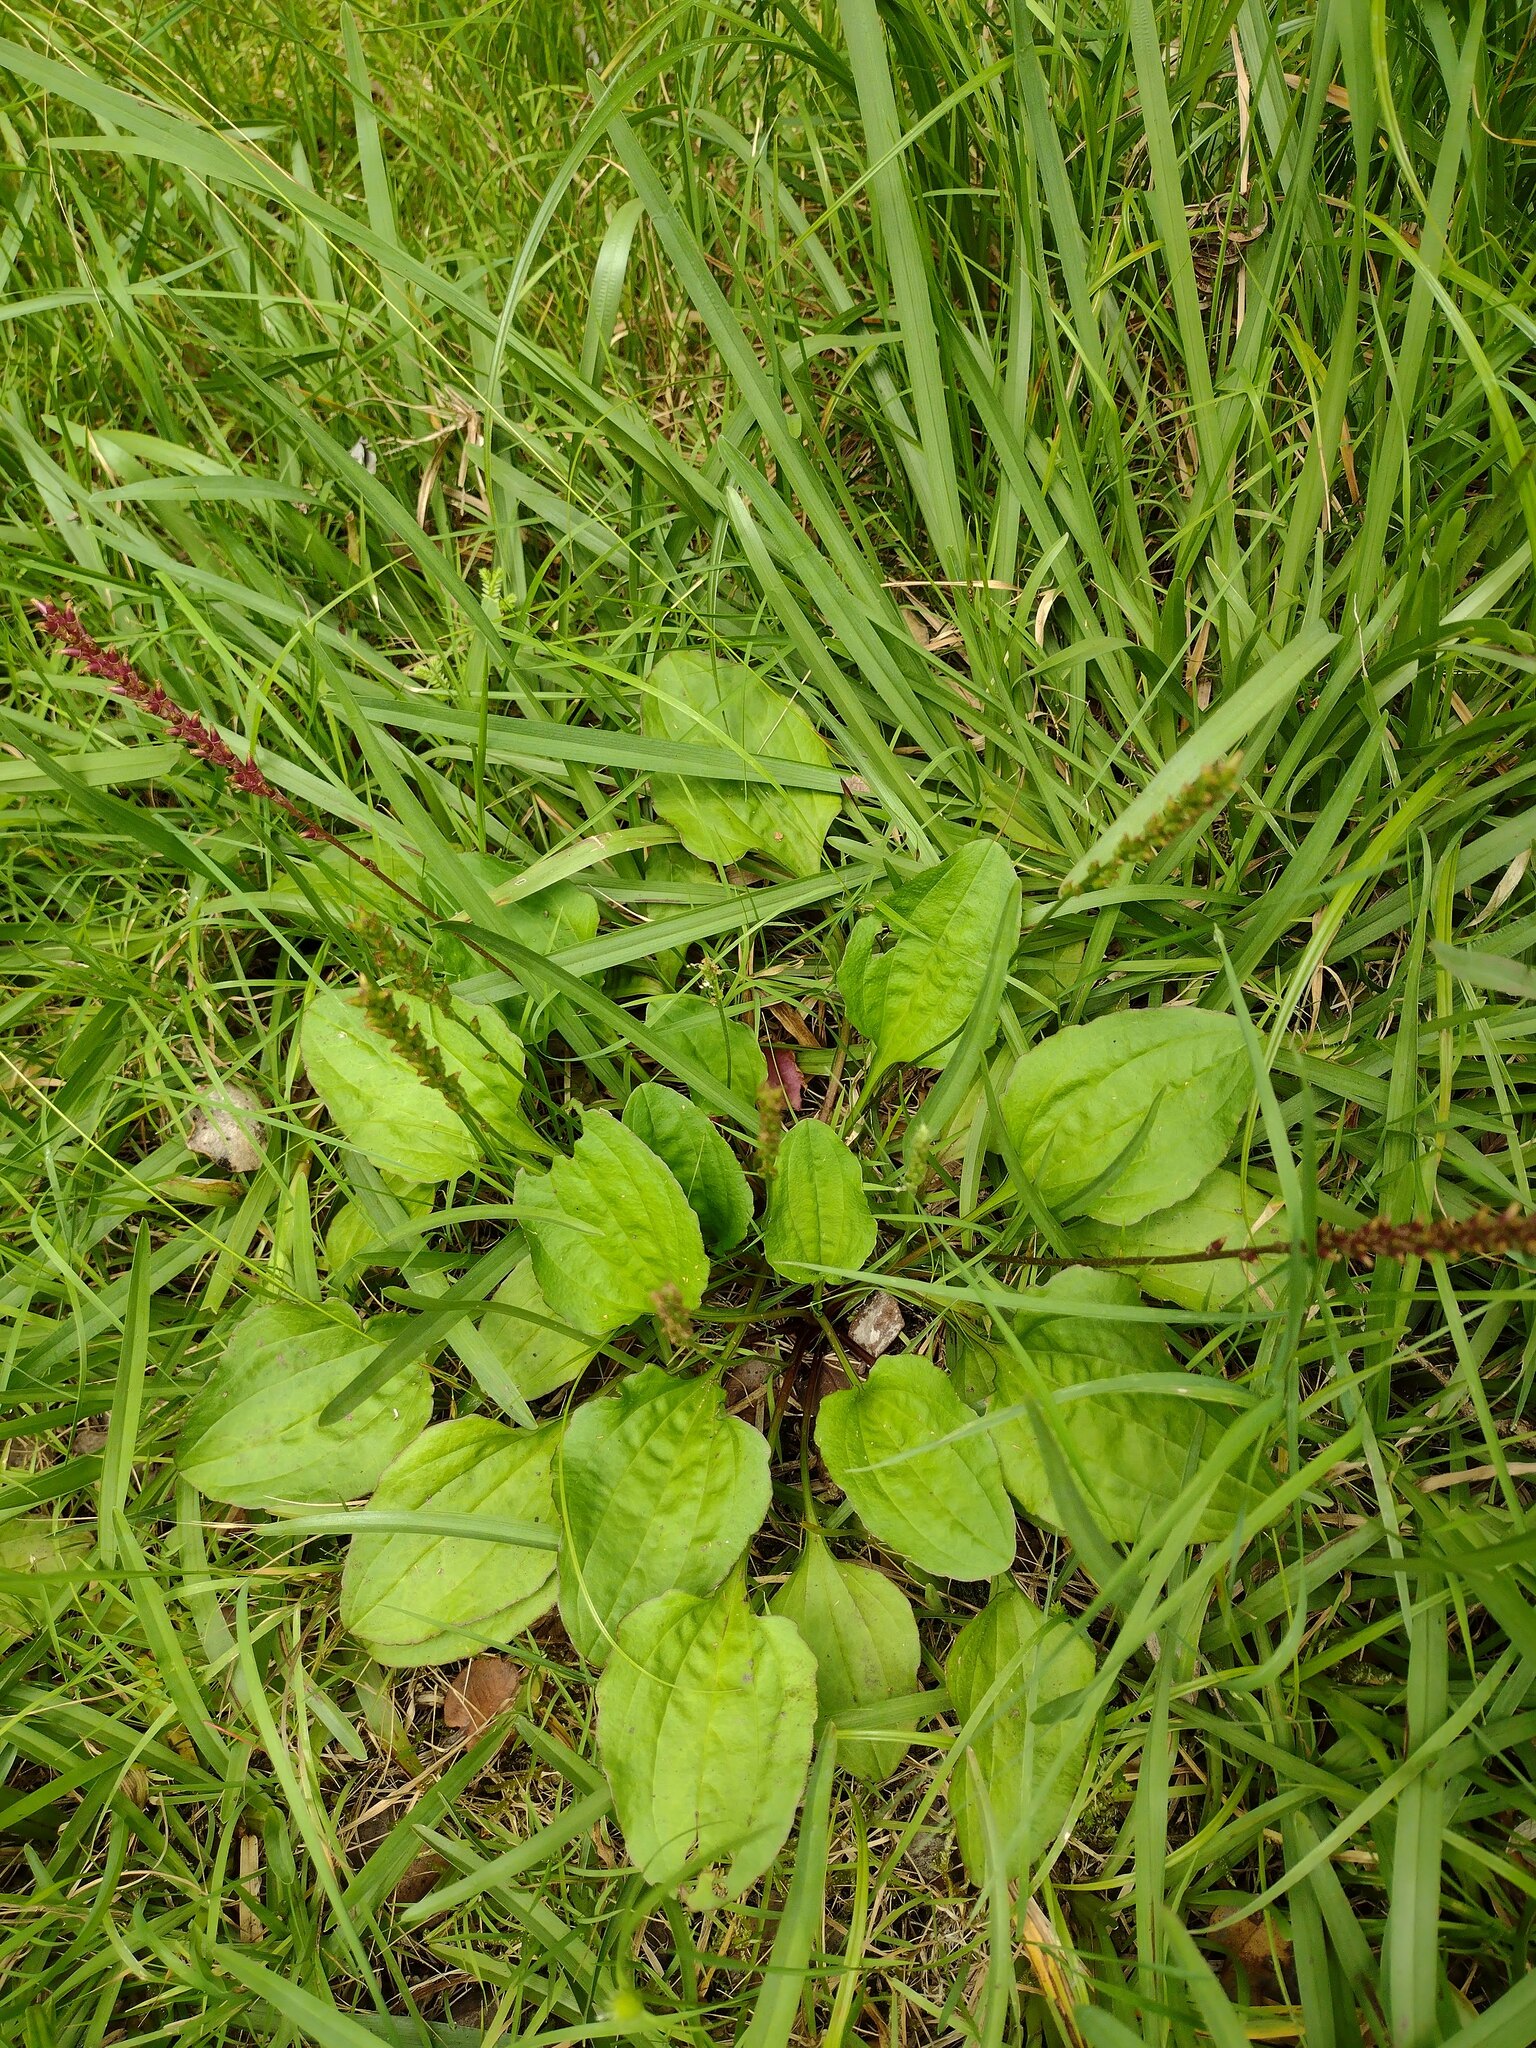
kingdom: Plantae
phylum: Tracheophyta
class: Magnoliopsida
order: Lamiales
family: Plantaginaceae
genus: Plantago
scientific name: Plantago rugelii
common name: American plantain
